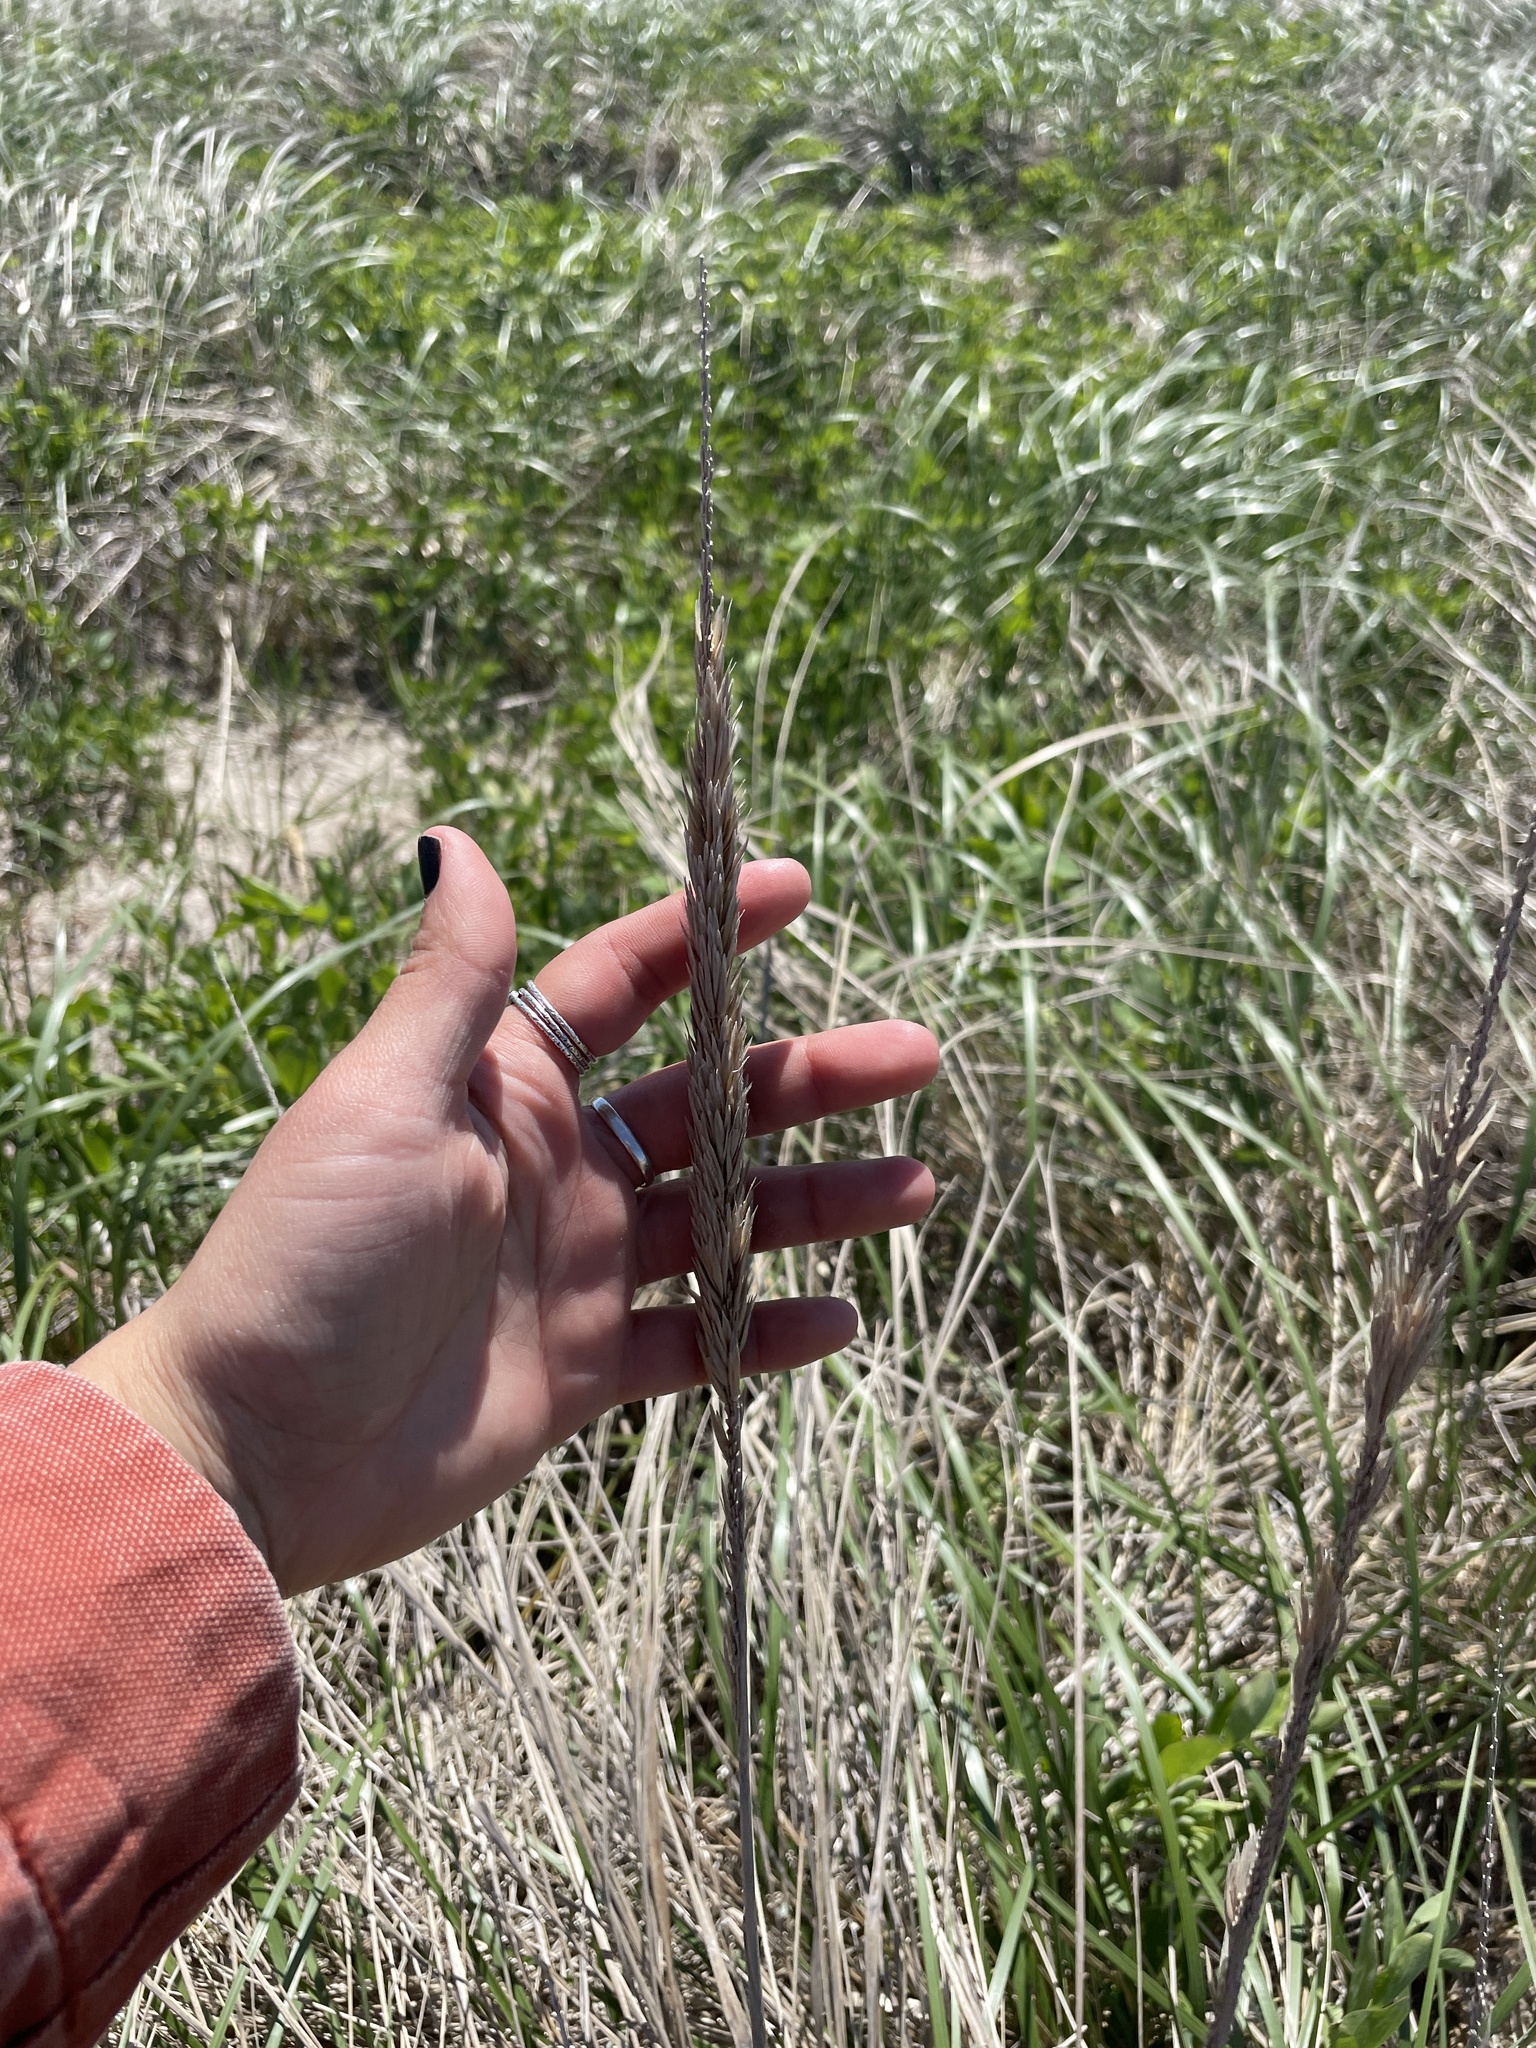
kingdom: Plantae
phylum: Tracheophyta
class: Liliopsida
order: Poales
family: Poaceae
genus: Calamagrostis
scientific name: Calamagrostis breviligulata
